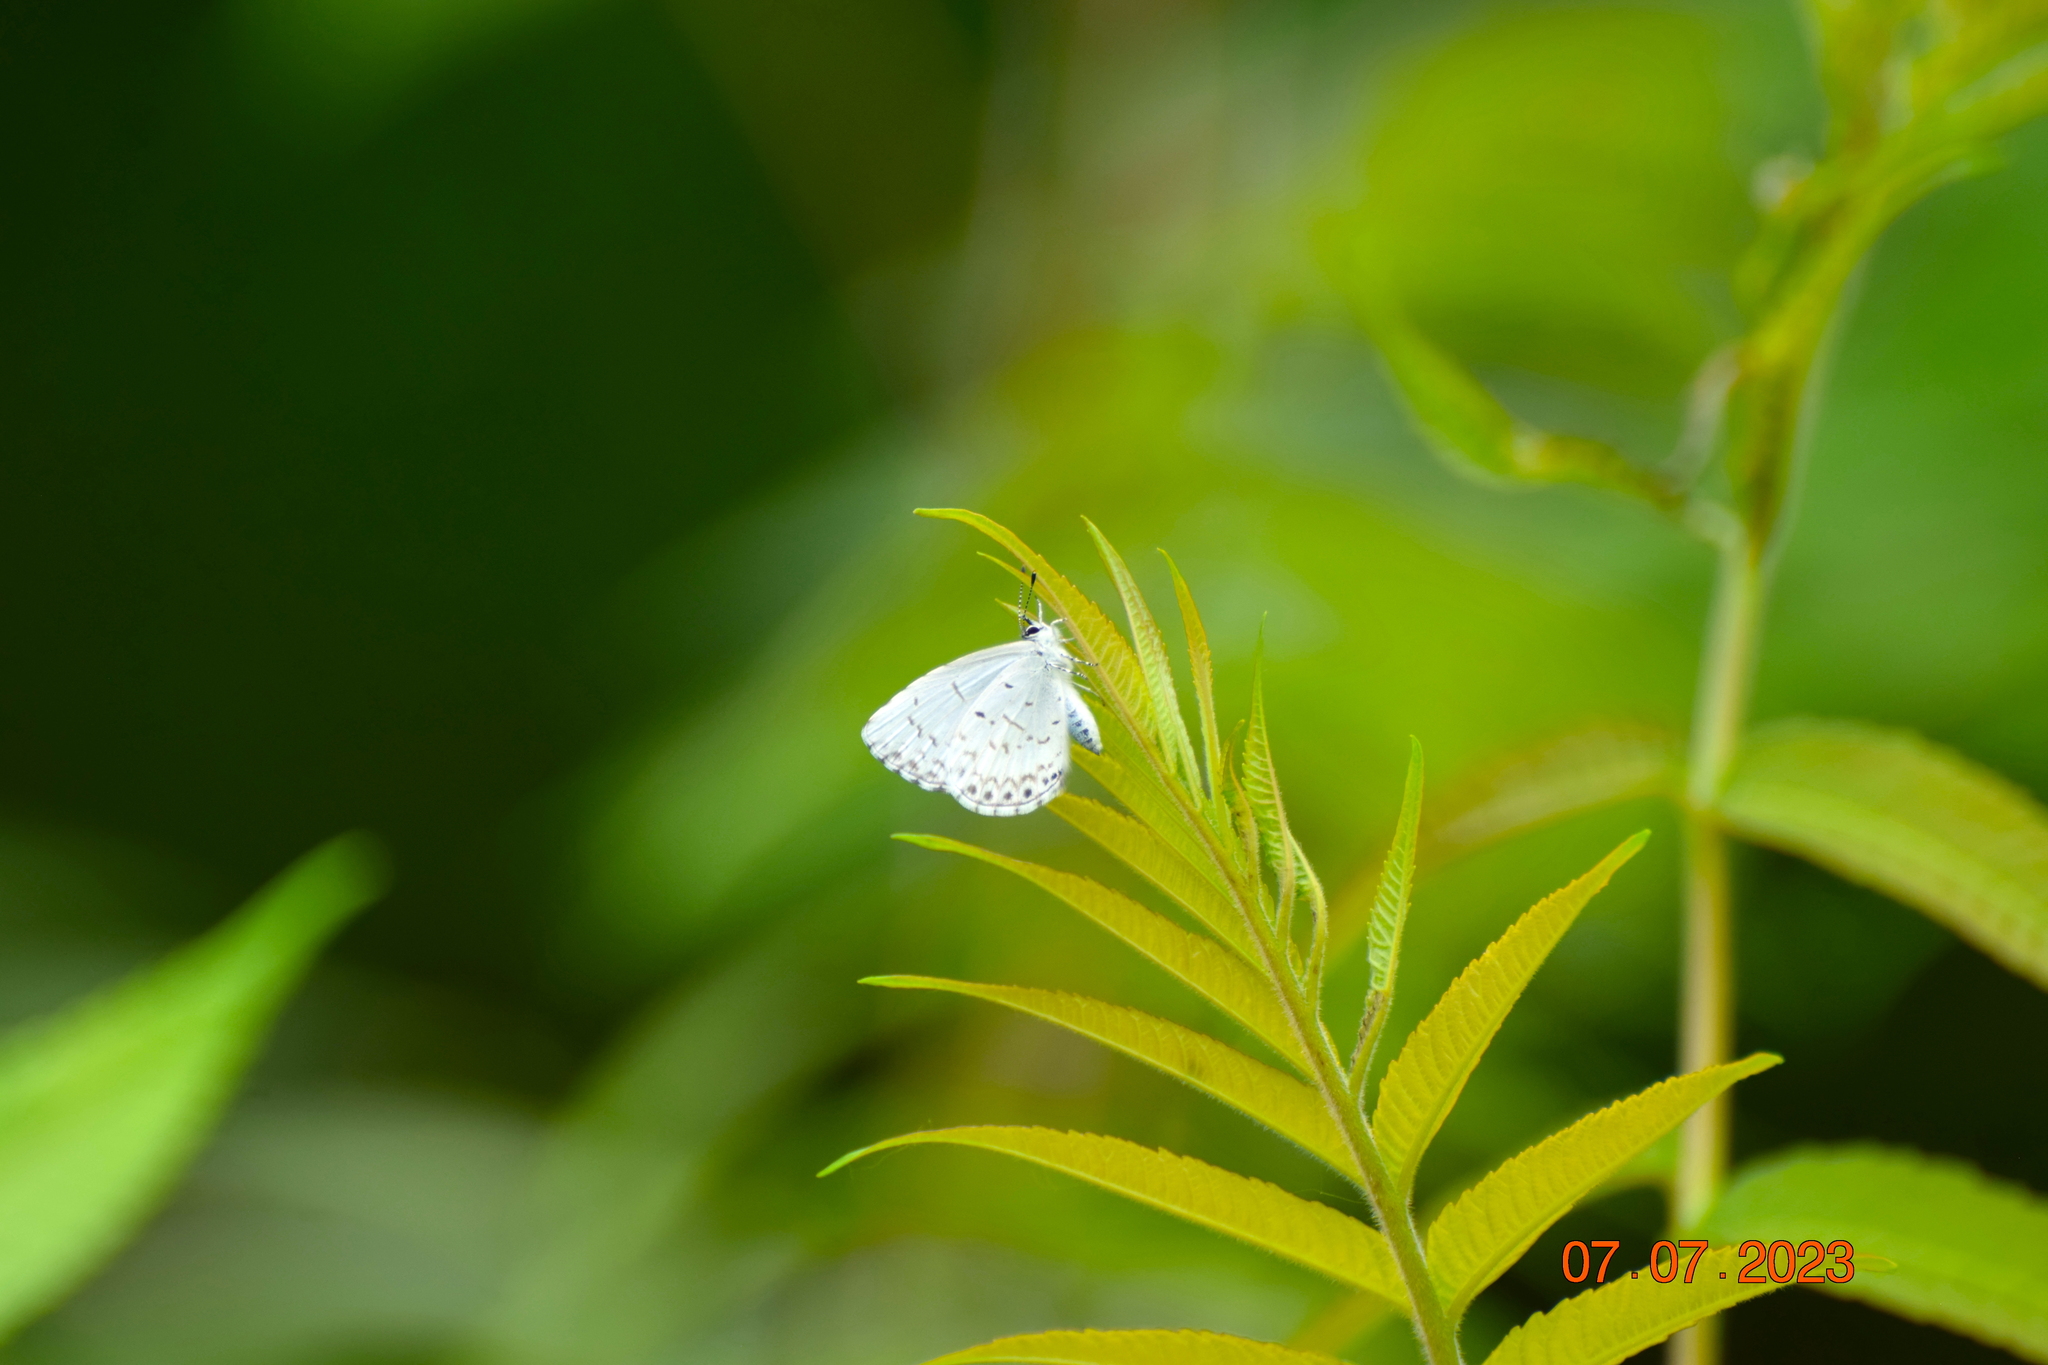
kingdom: Animalia
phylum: Arthropoda
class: Insecta
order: Lepidoptera
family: Lycaenidae
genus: Celastrina
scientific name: Celastrina lucia
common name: Lucia azure
